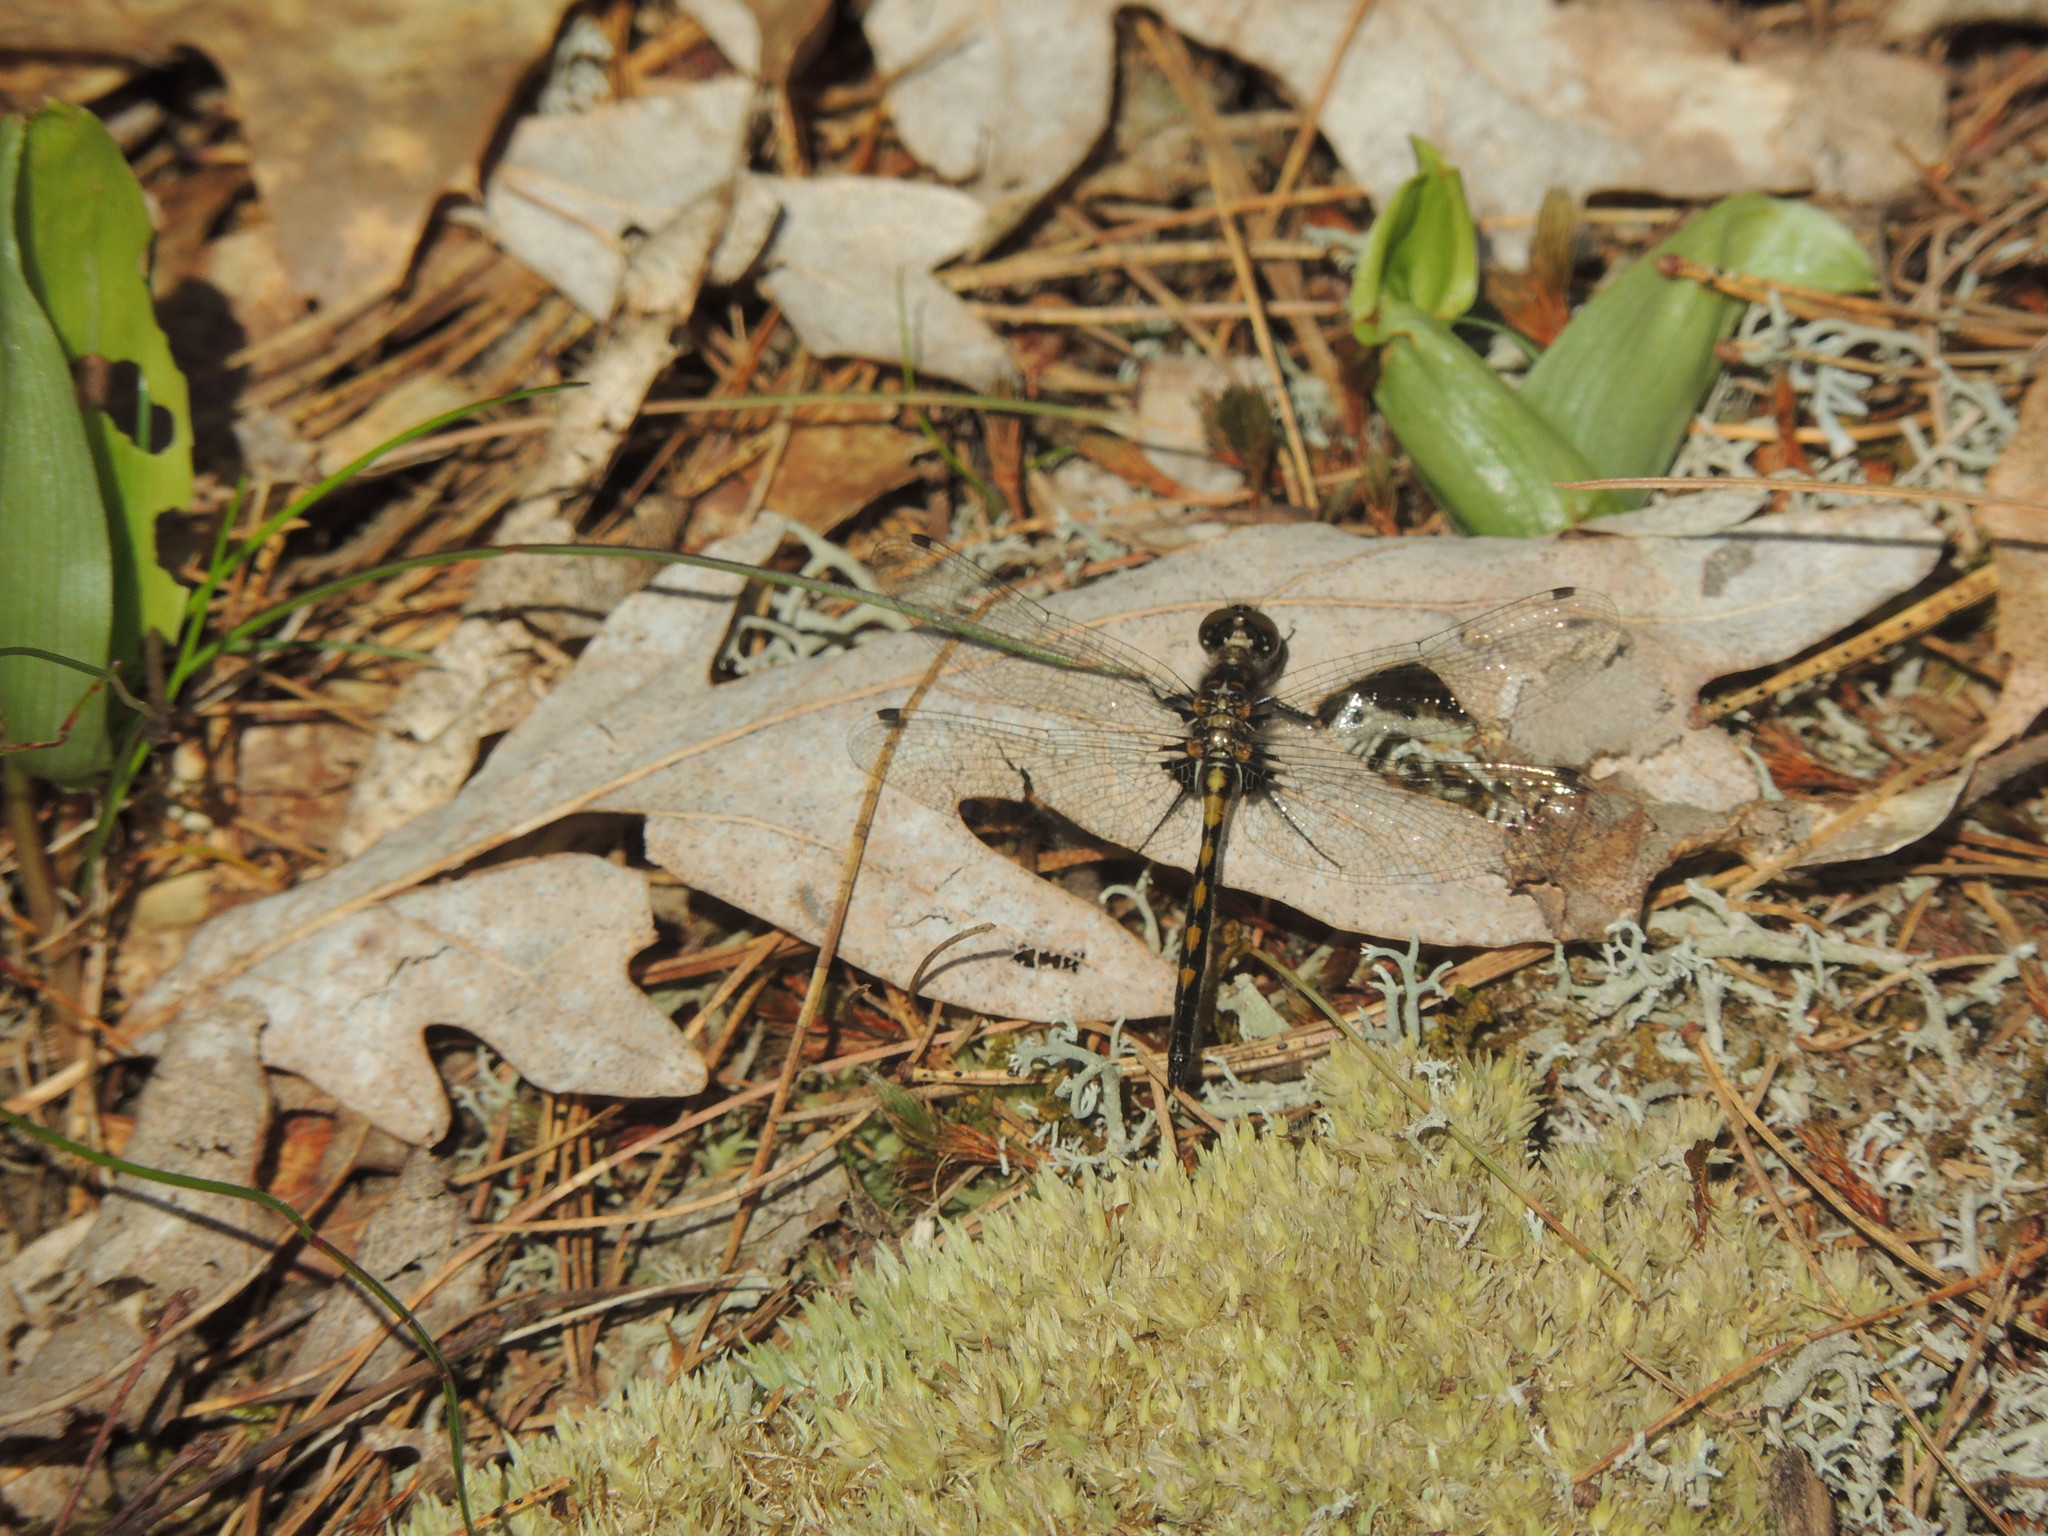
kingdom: Animalia
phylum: Arthropoda
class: Insecta
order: Odonata
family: Libellulidae
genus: Leucorrhinia
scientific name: Leucorrhinia hudsonica
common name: Hudsonian whiteface
